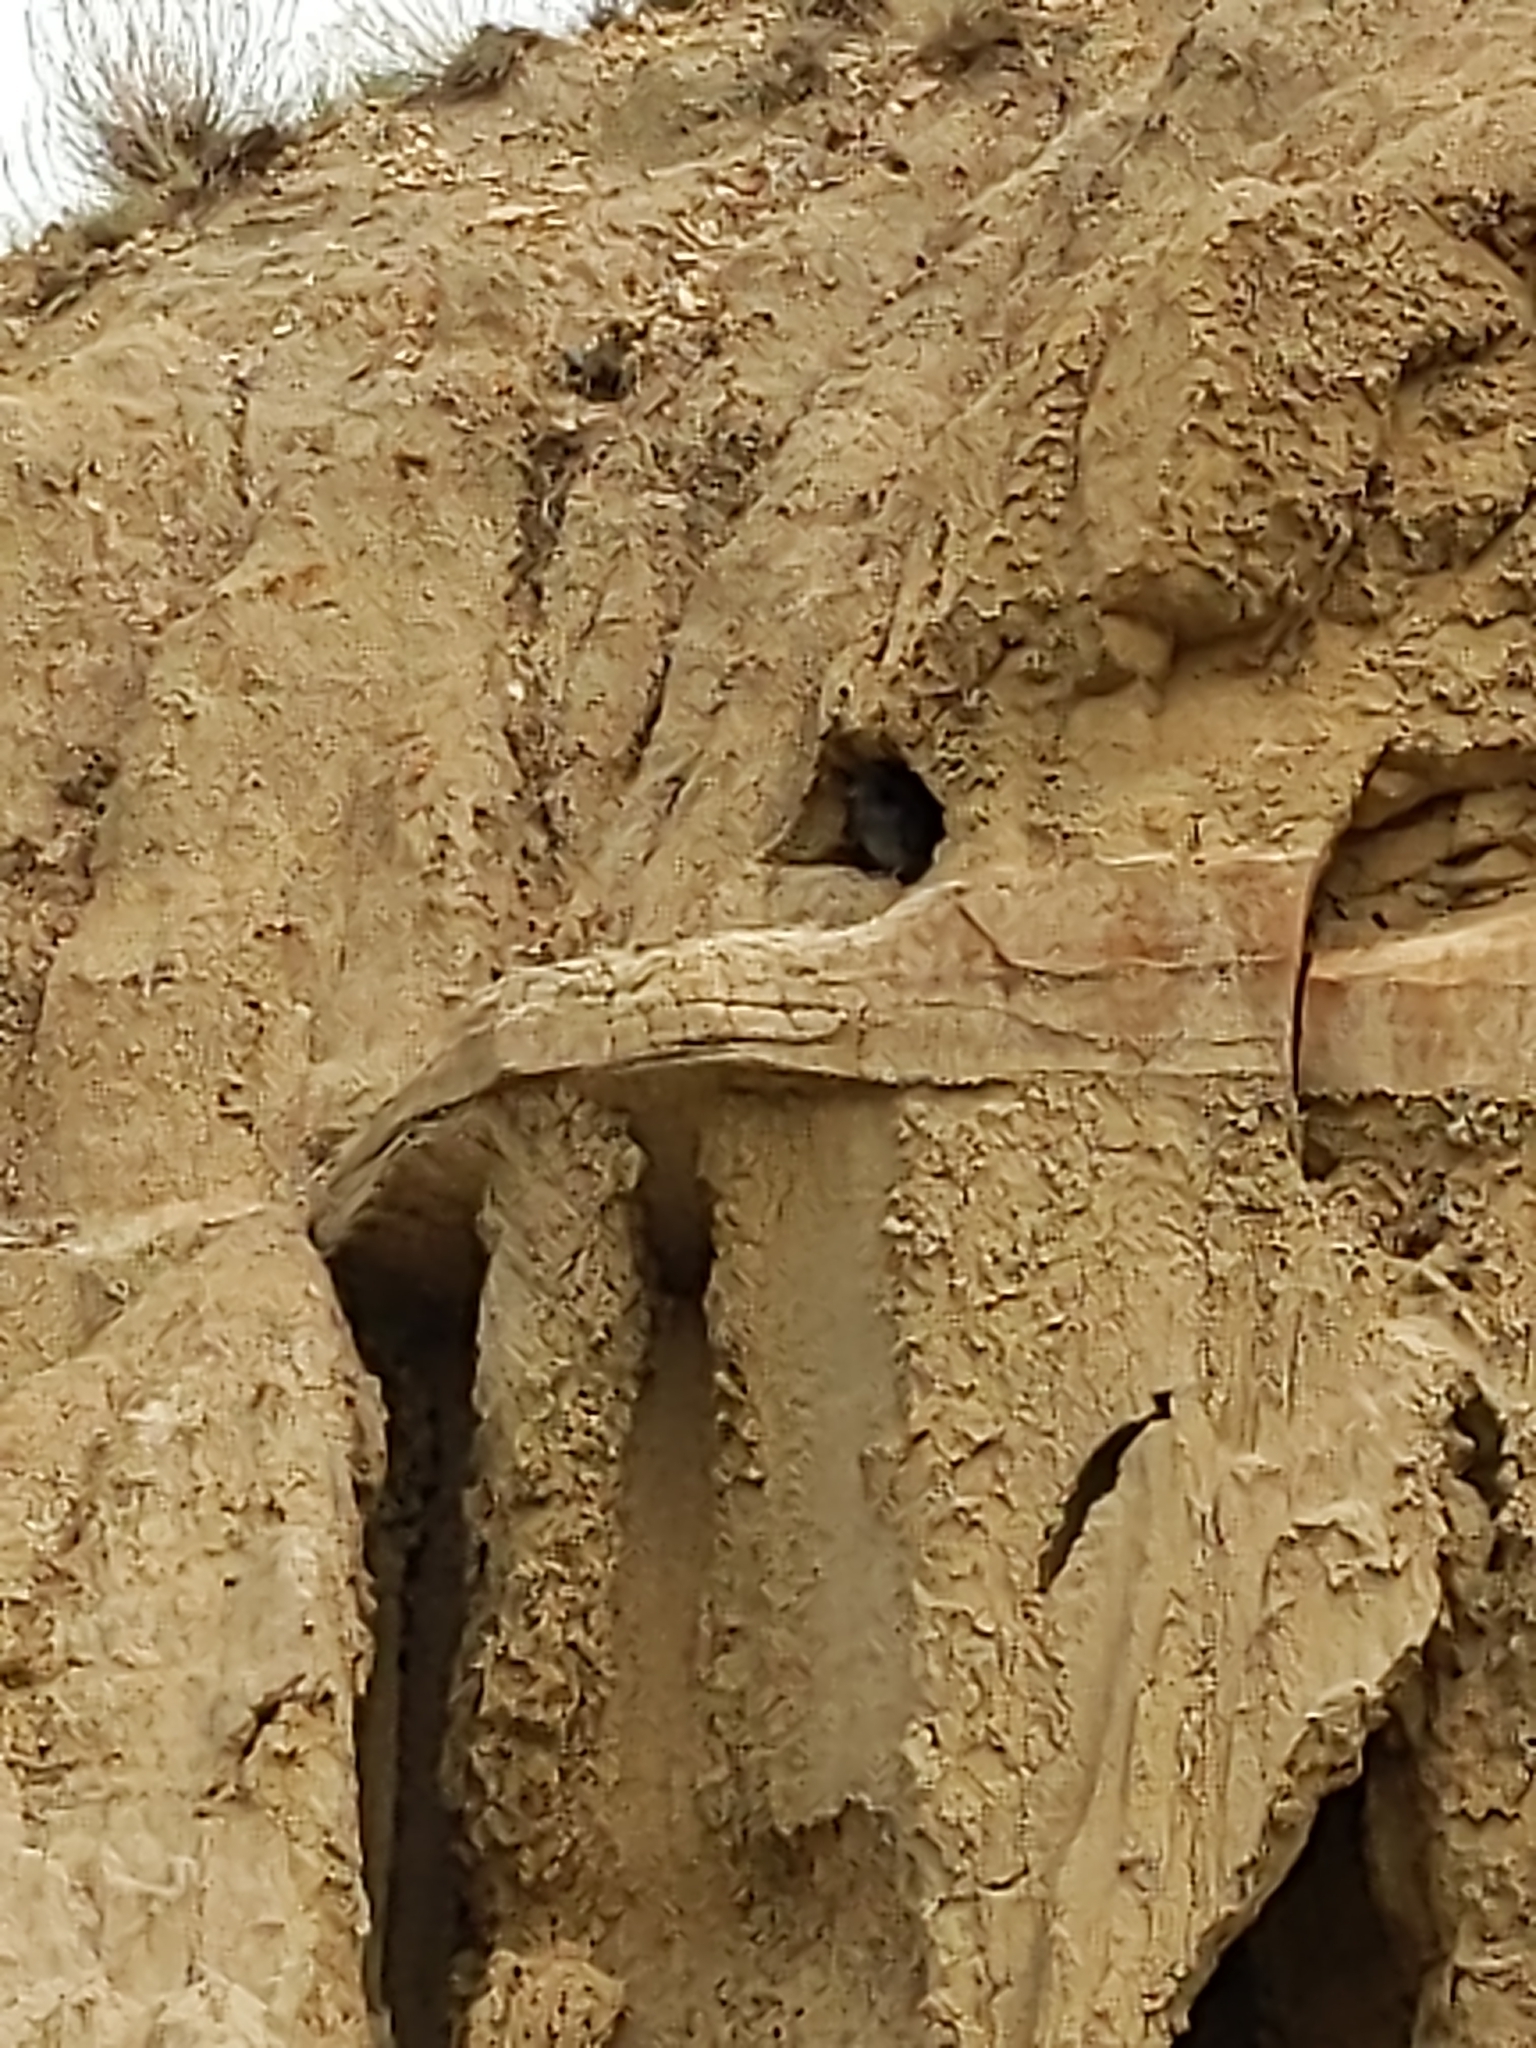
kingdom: Animalia
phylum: Chordata
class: Aves
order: Columbiformes
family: Columbidae
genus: Columba
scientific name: Columba livia
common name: Rock pigeon
